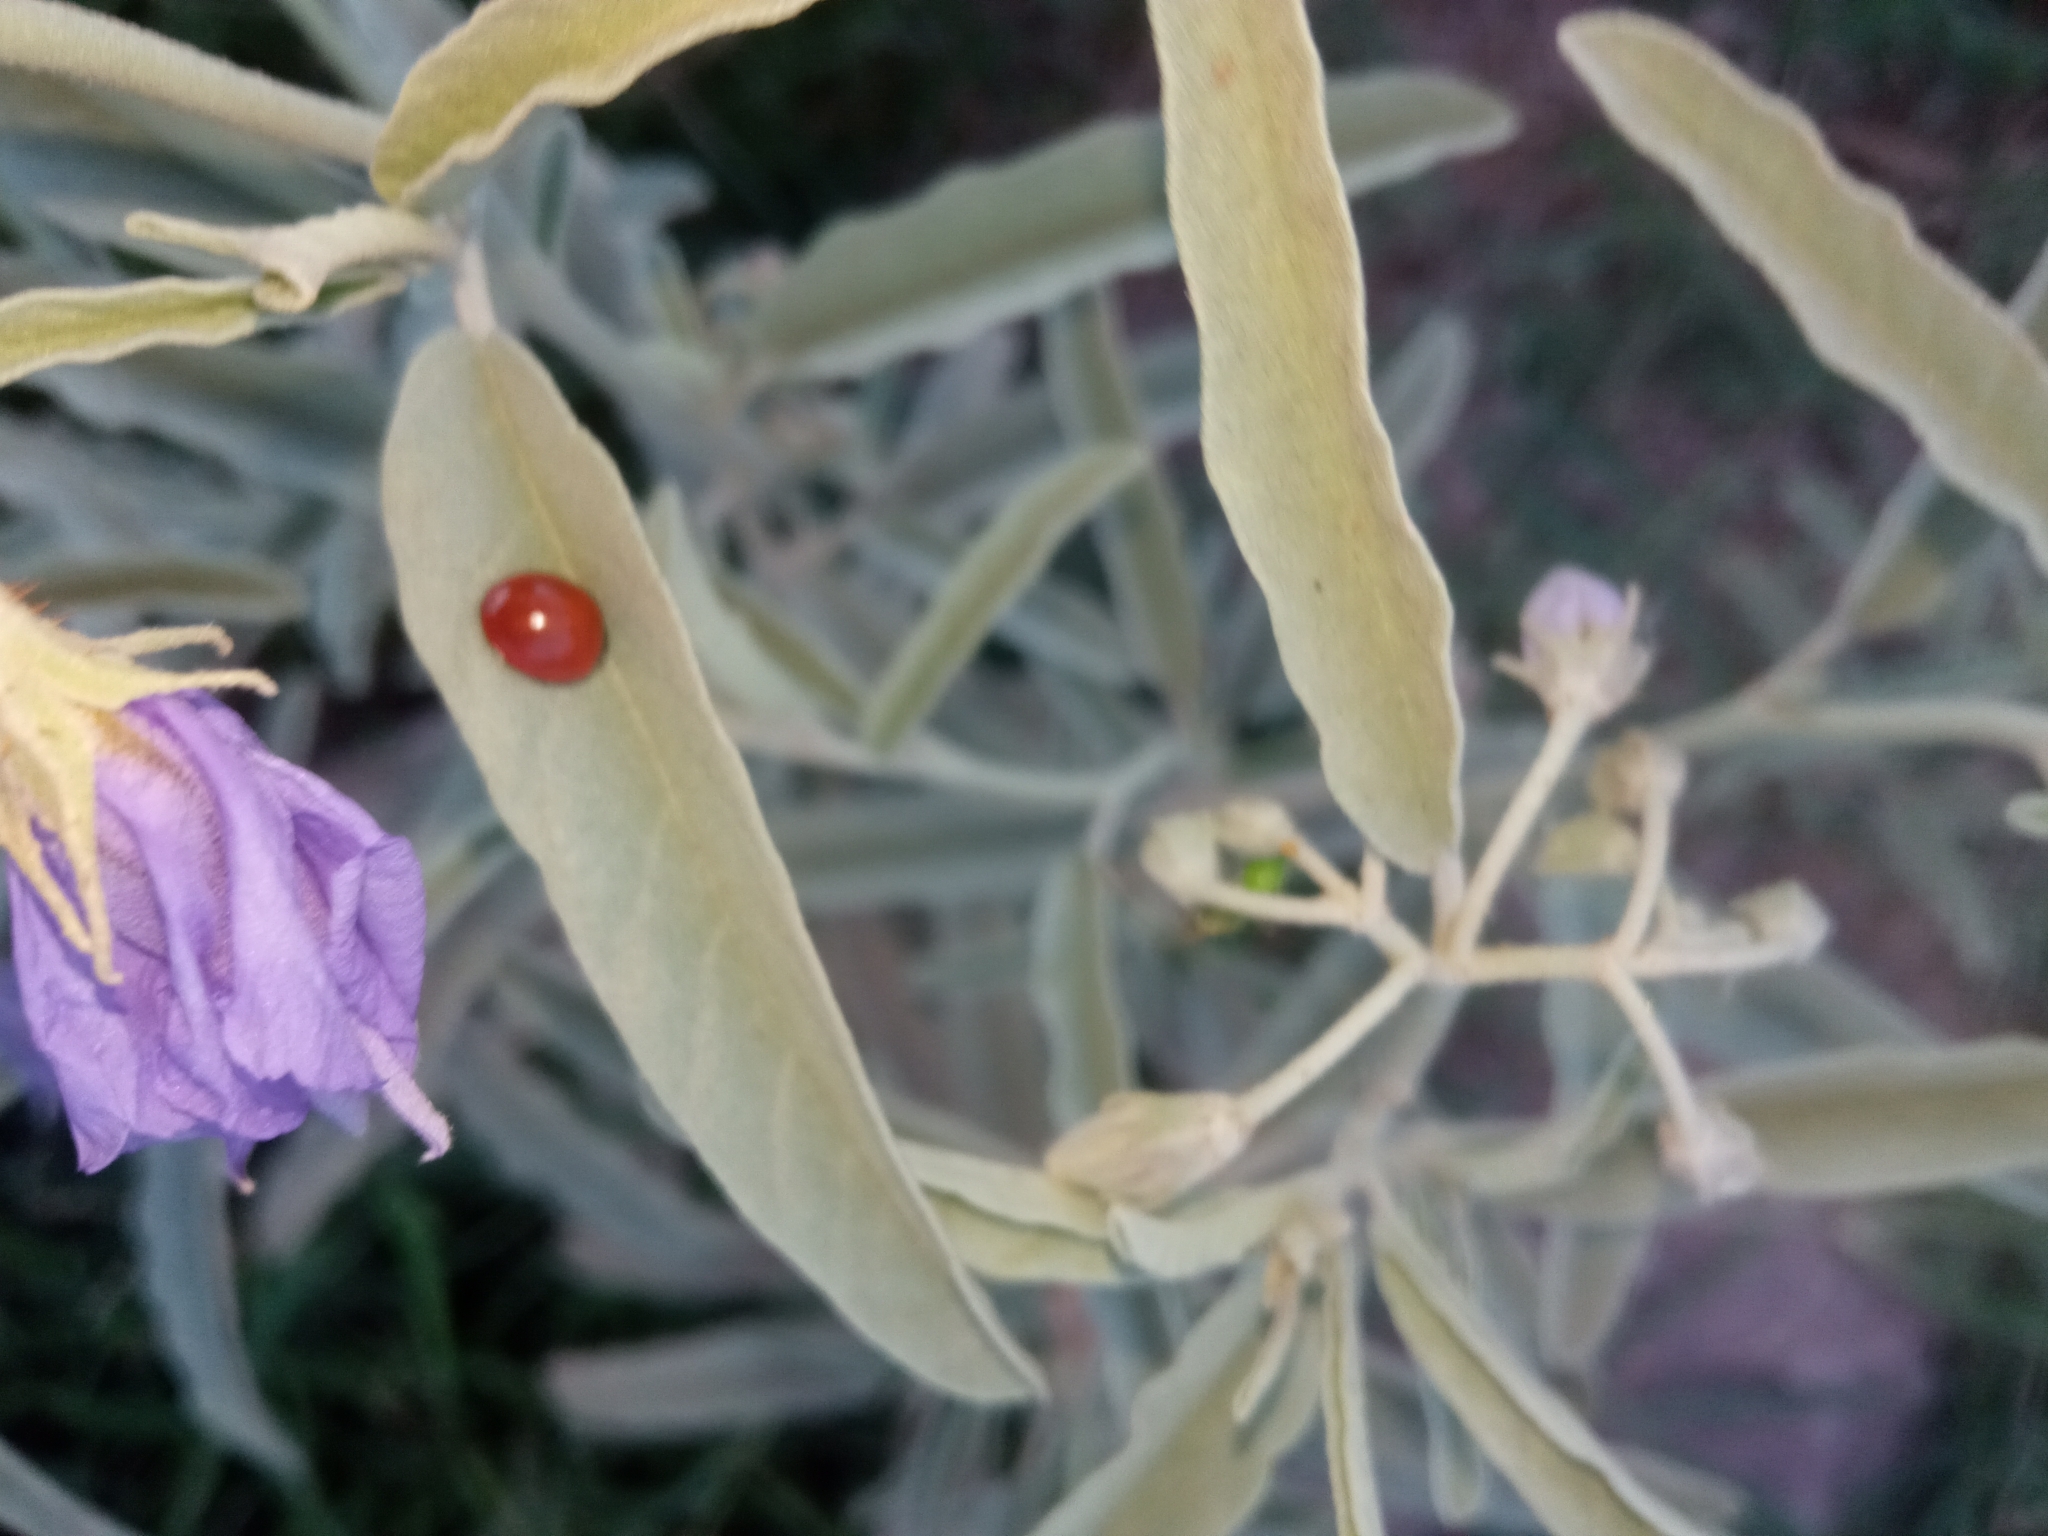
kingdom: Animalia
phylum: Arthropoda
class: Insecta
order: Coleoptera
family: Coccinellidae
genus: Cycloneda
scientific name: Cycloneda sanguinea
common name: Ladybird beetle
